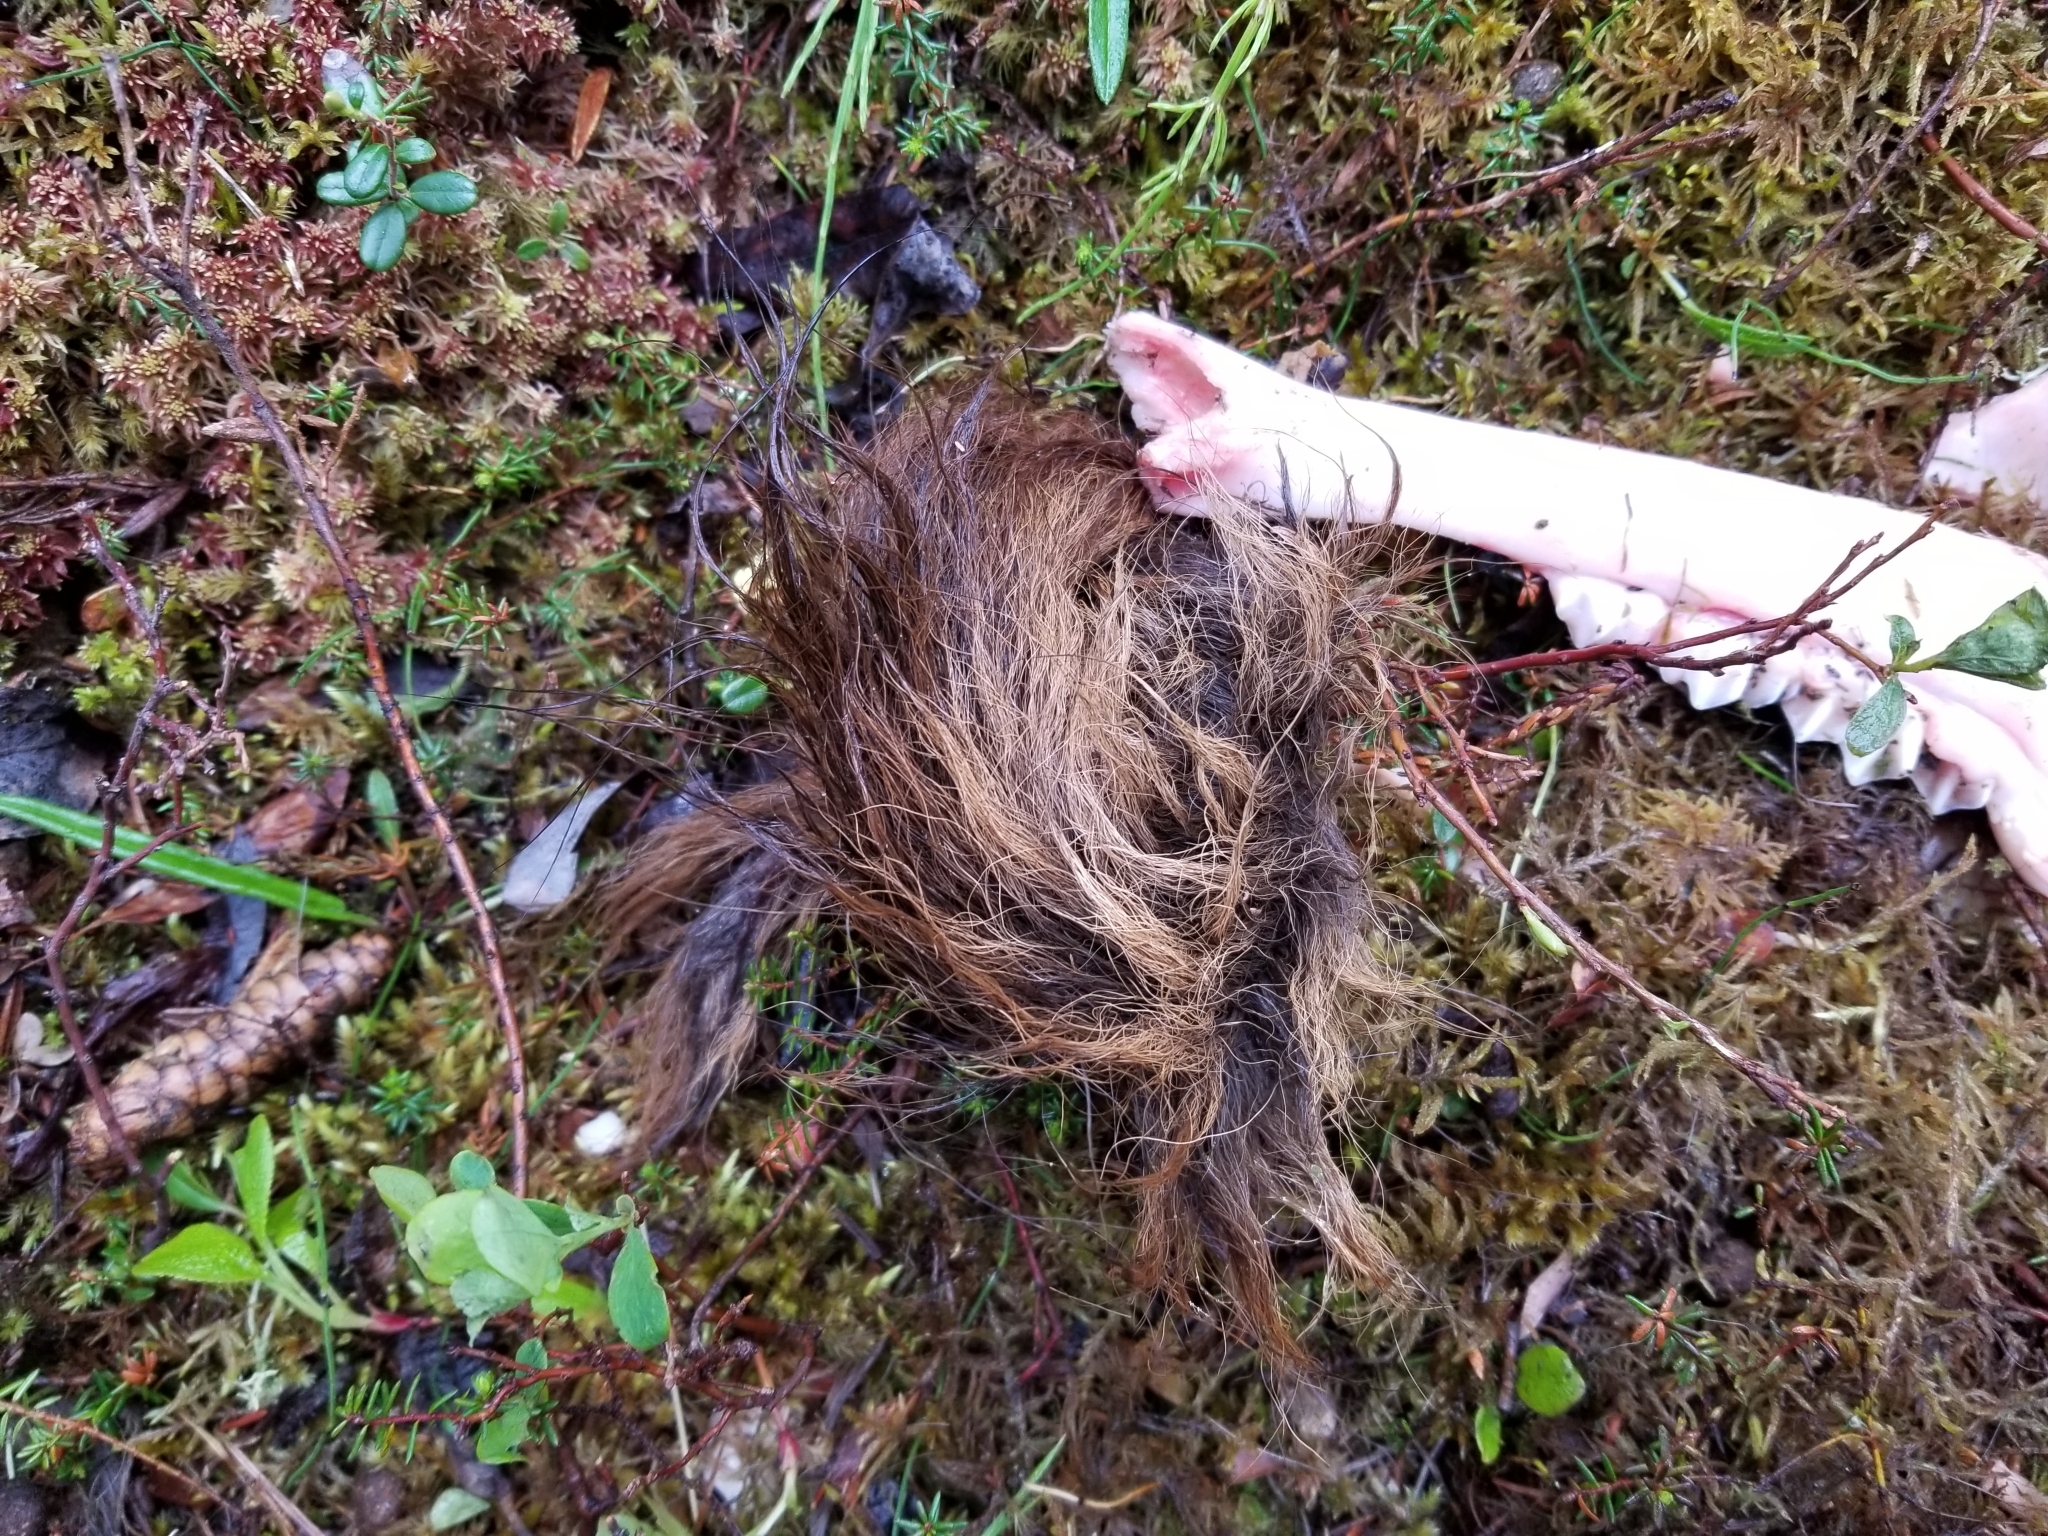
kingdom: Animalia
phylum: Chordata
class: Mammalia
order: Artiodactyla
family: Cervidae
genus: Alces
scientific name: Alces alces
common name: Moose
